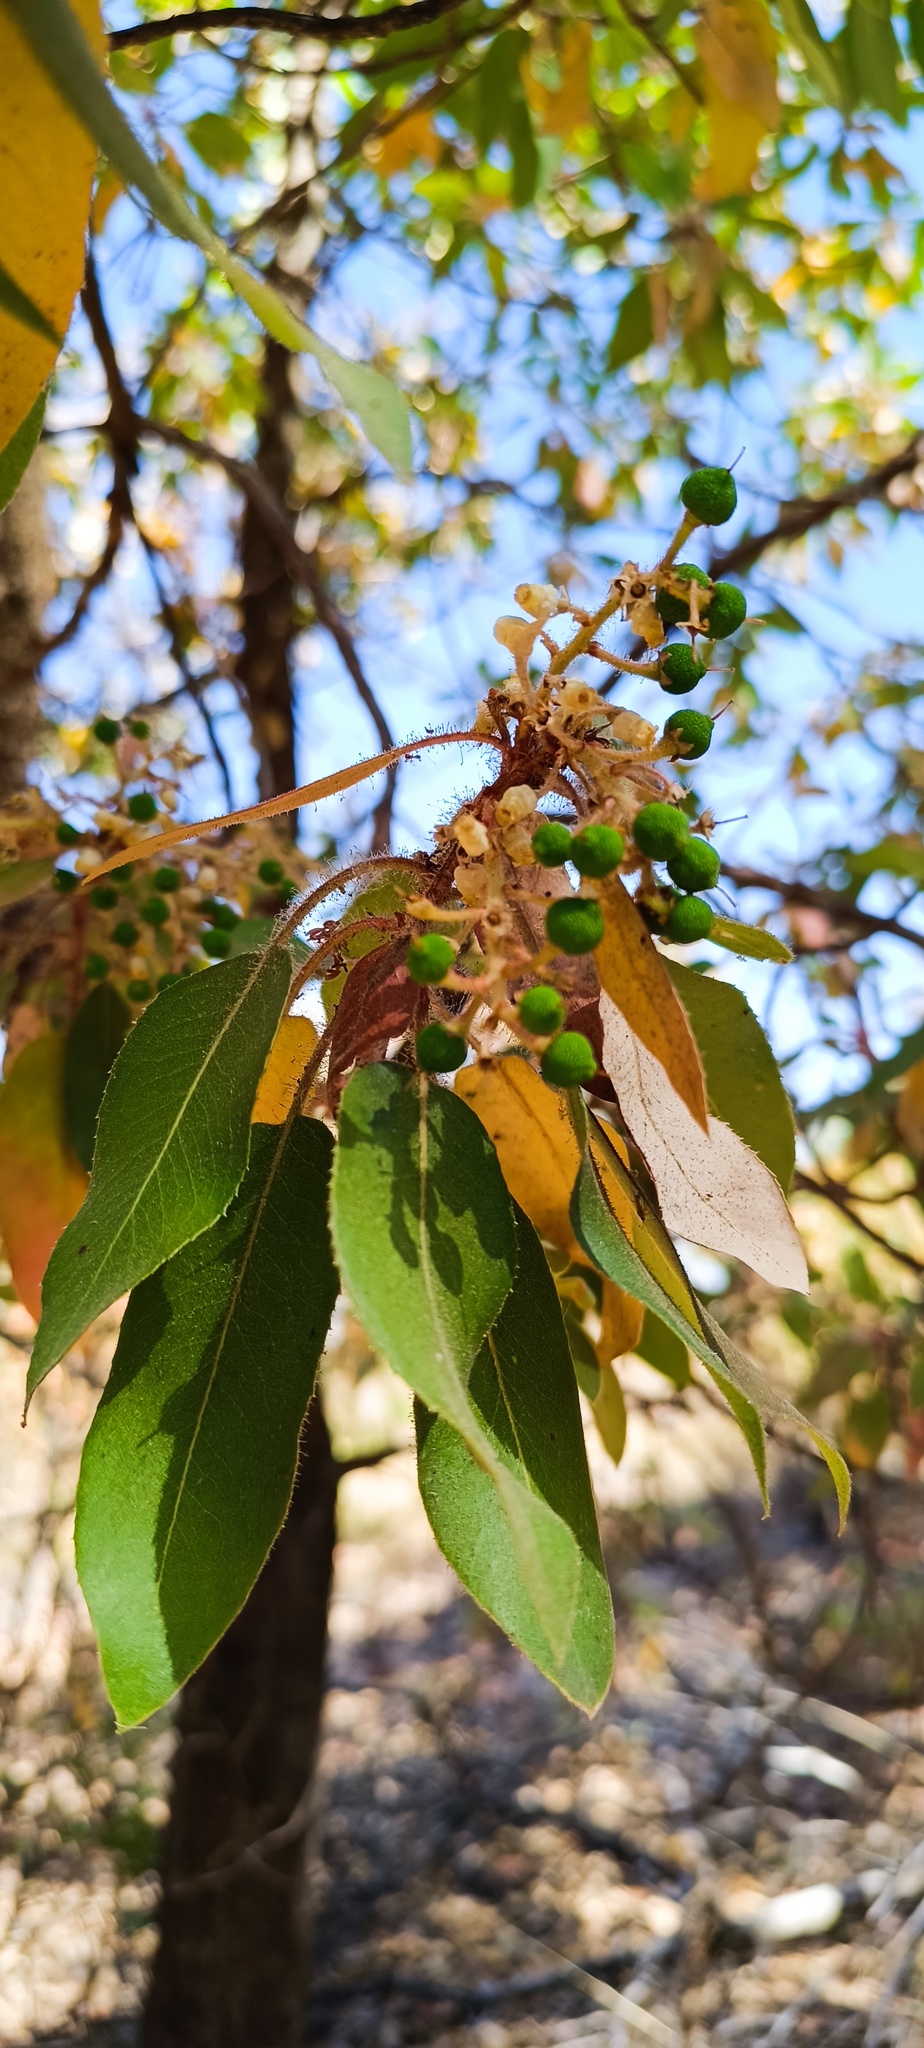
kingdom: Plantae
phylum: Tracheophyta
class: Magnoliopsida
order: Ericales
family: Ericaceae
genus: Arbutus
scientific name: Arbutus tessellata
